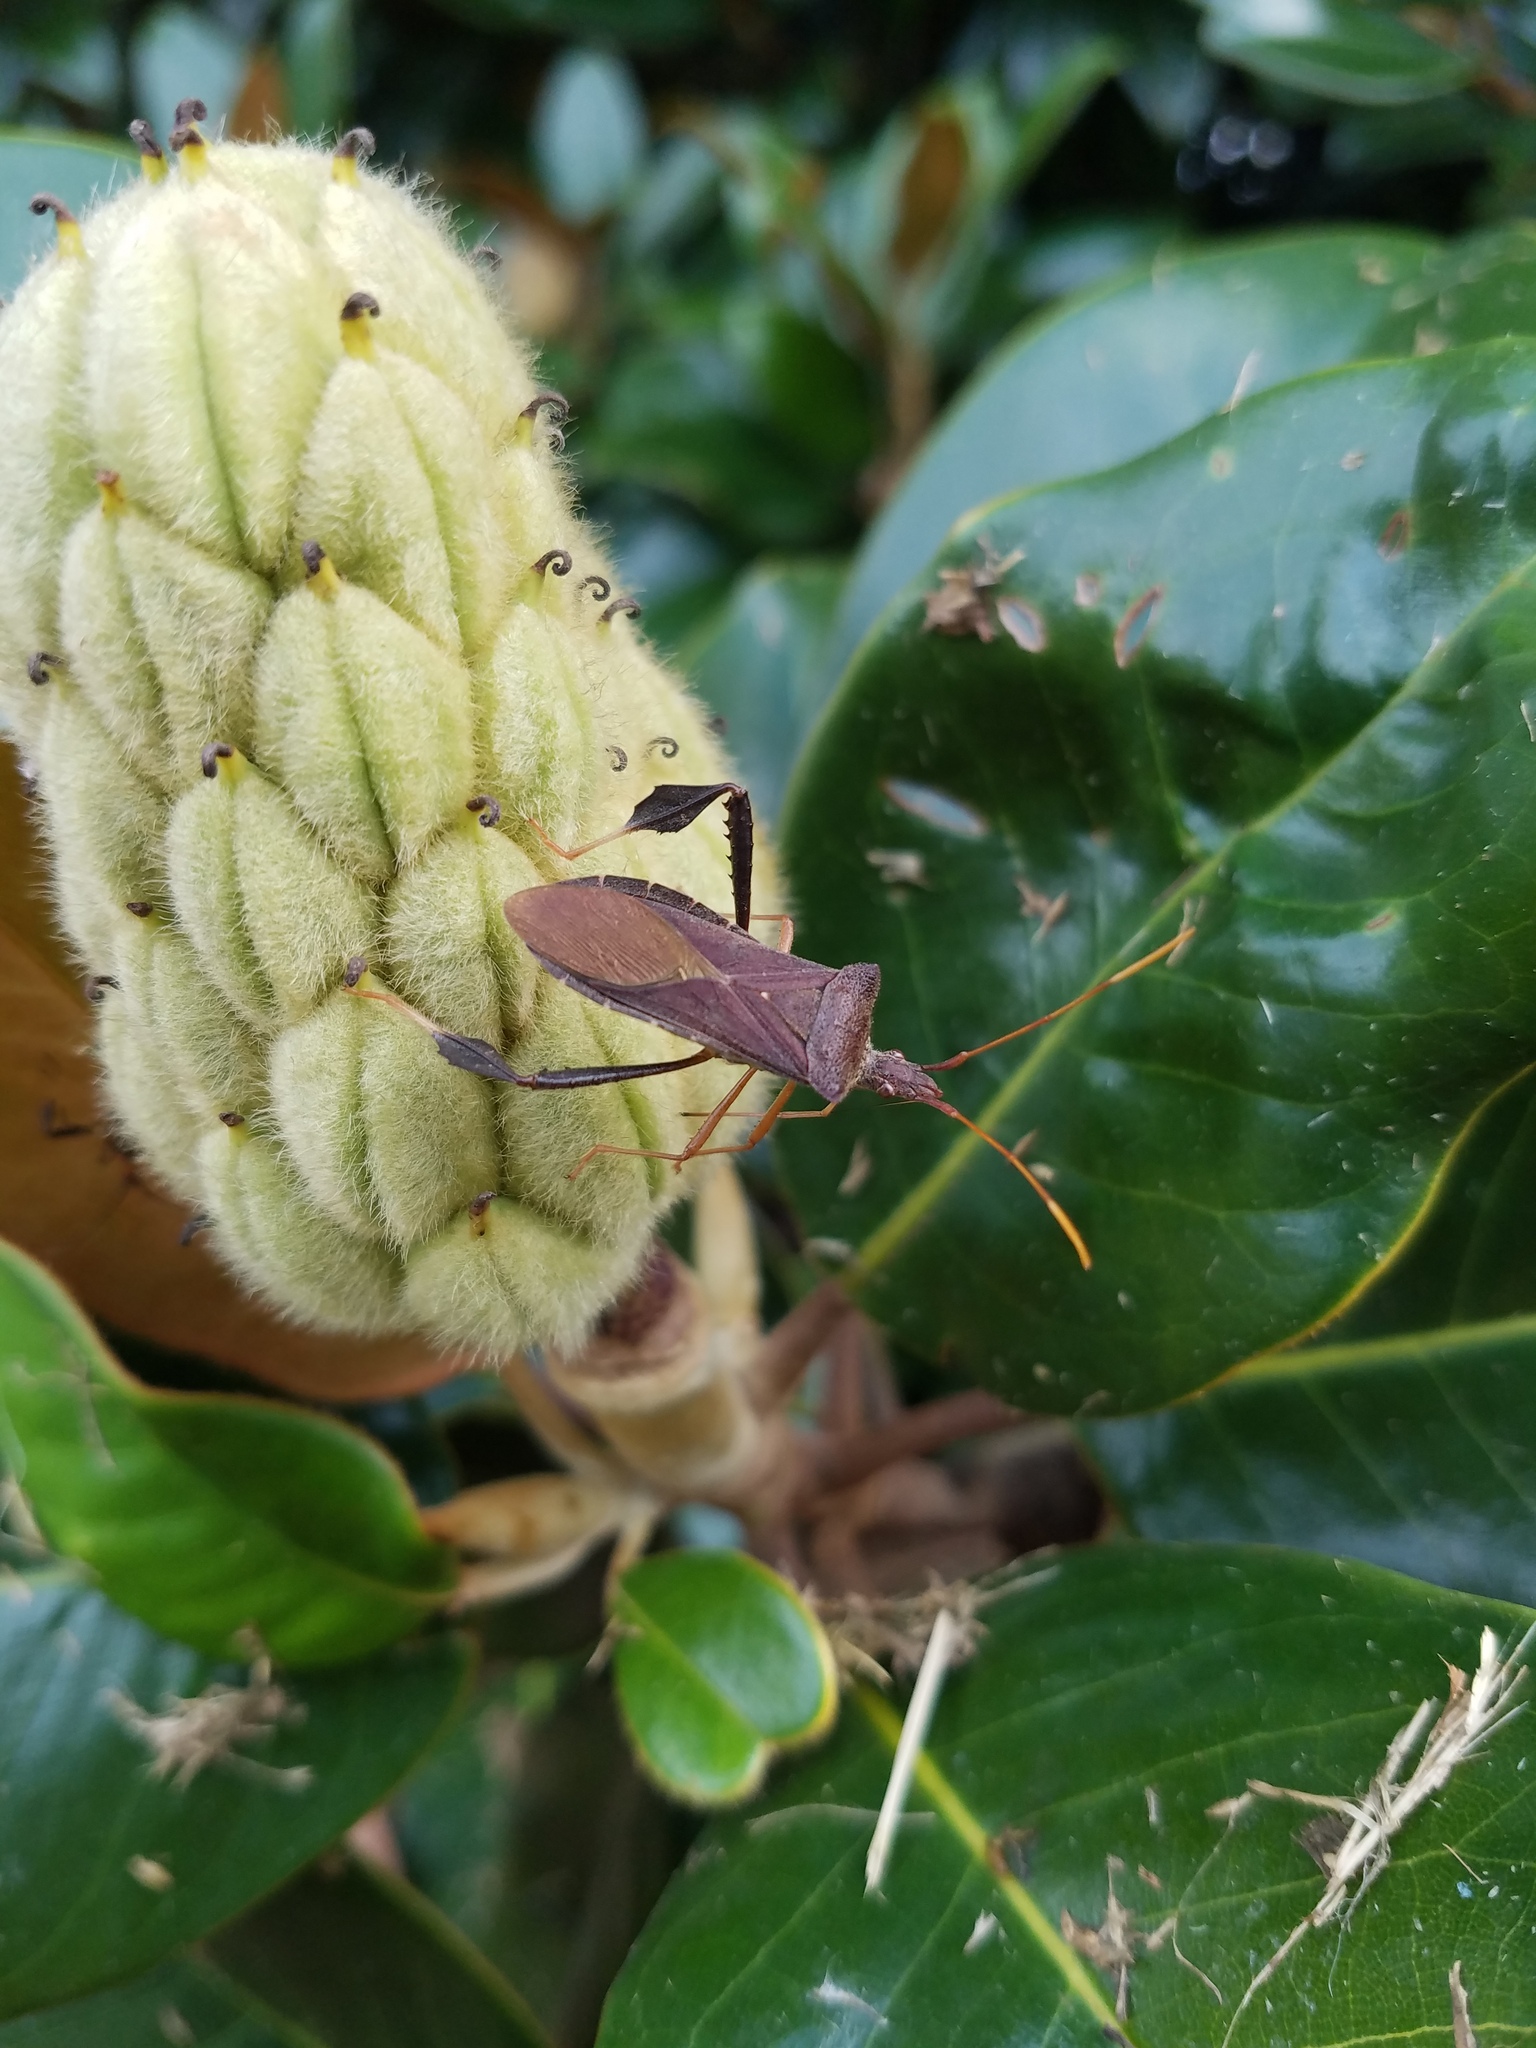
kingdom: Animalia
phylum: Arthropoda
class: Insecta
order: Hemiptera
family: Coreidae
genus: Leptoglossus
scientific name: Leptoglossus fulvicornis
